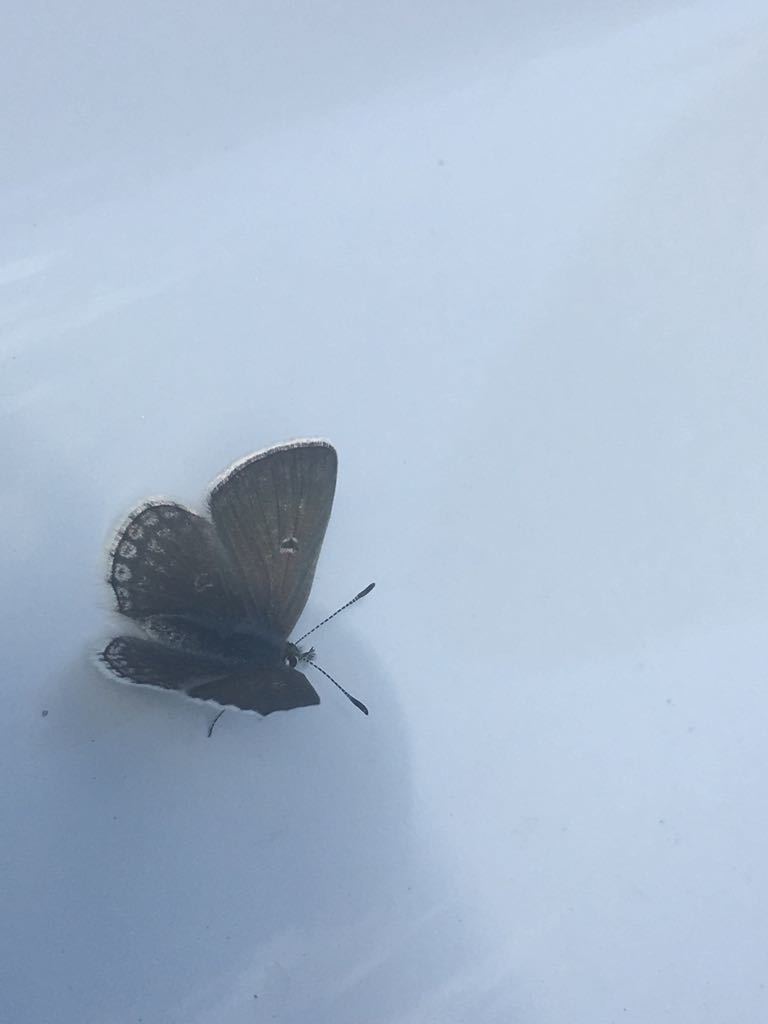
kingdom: Animalia
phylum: Arthropoda
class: Insecta
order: Lepidoptera
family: Lycaenidae
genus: Agriades
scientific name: Agriades glandon
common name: Glandon blue
